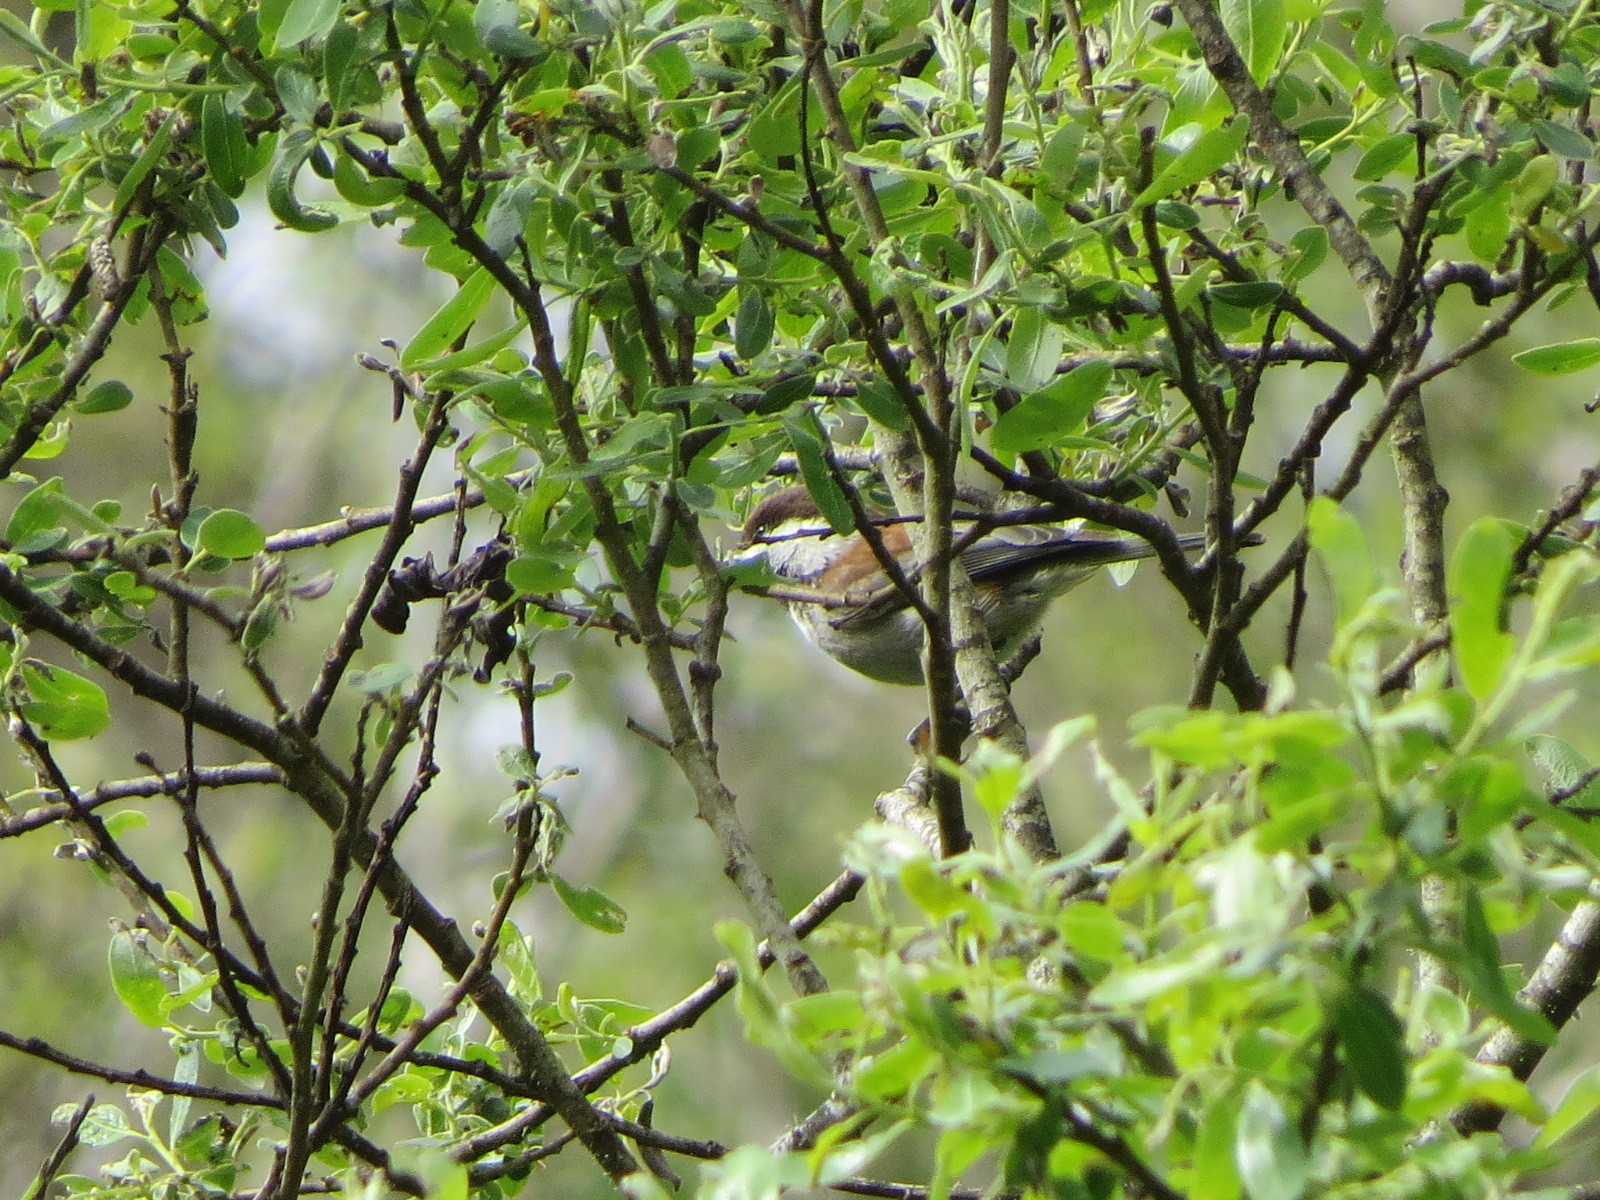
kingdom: Animalia
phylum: Chordata
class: Aves
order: Passeriformes
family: Paridae
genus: Poecile
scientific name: Poecile rufescens
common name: Chestnut-backed chickadee
